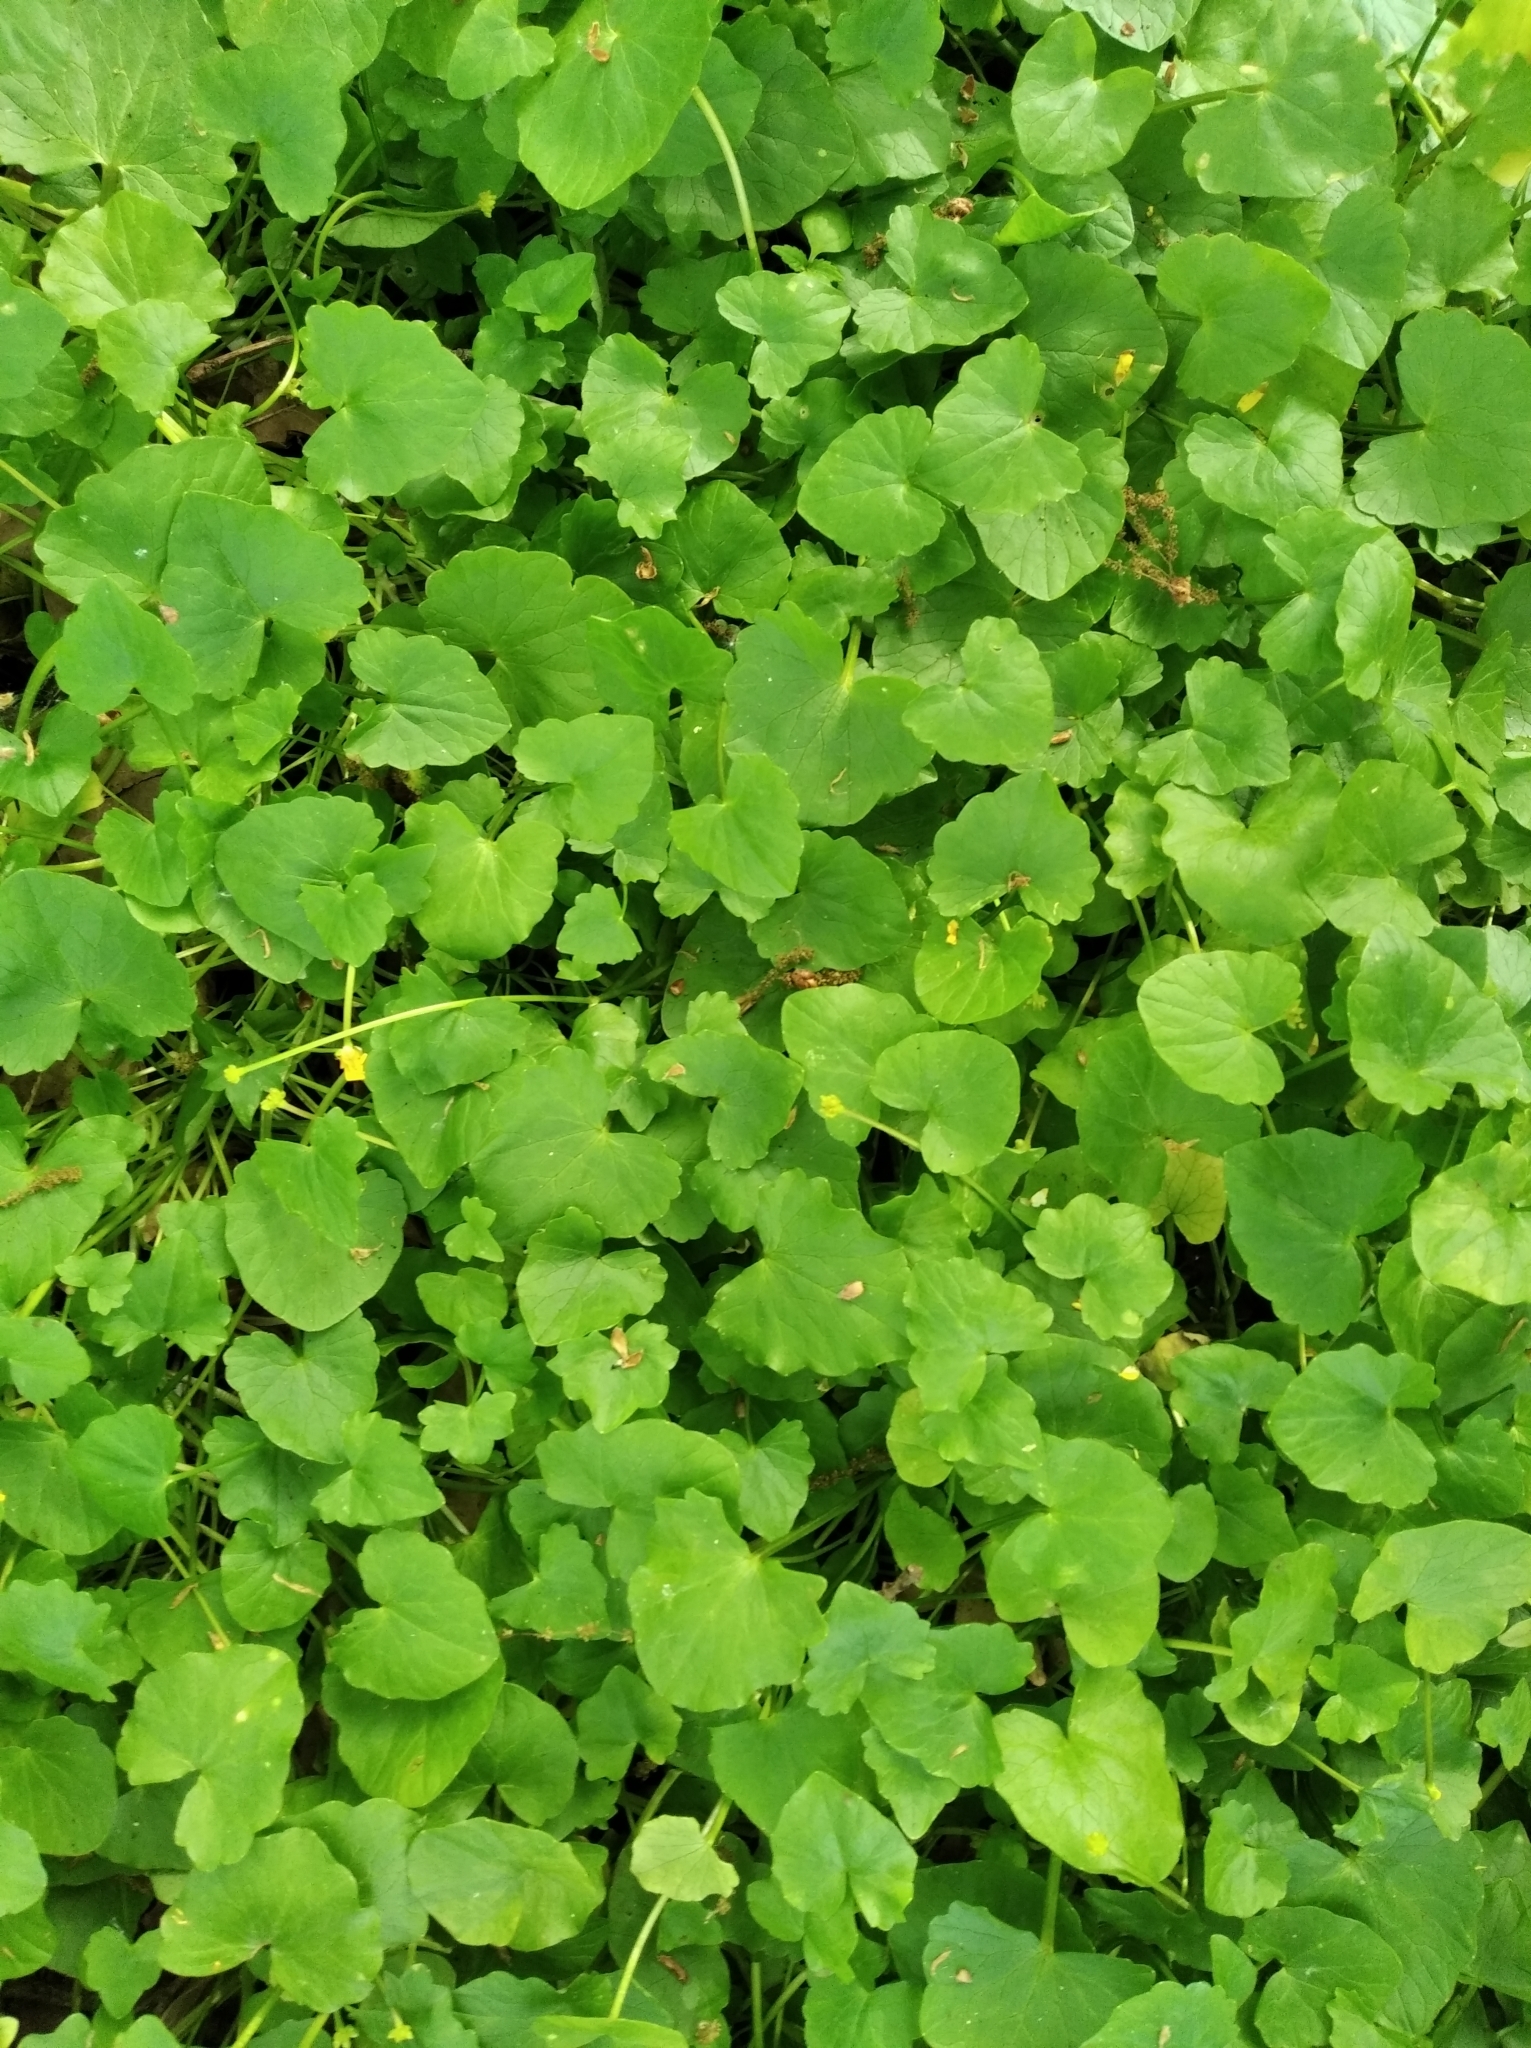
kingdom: Plantae
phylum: Tracheophyta
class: Magnoliopsida
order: Ranunculales
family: Ranunculaceae
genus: Ficaria
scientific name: Ficaria verna
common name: Lesser celandine
